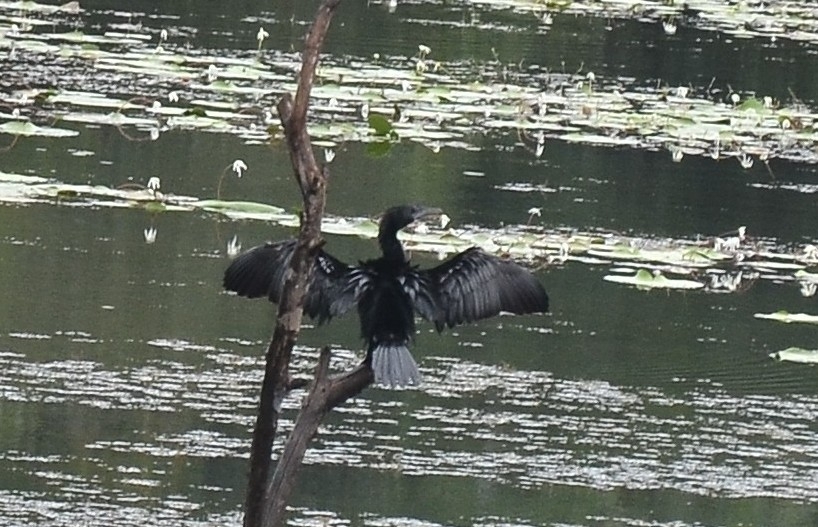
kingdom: Animalia
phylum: Chordata
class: Aves
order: Suliformes
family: Phalacrocoracidae
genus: Microcarbo
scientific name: Microcarbo niger
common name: Little cormorant
